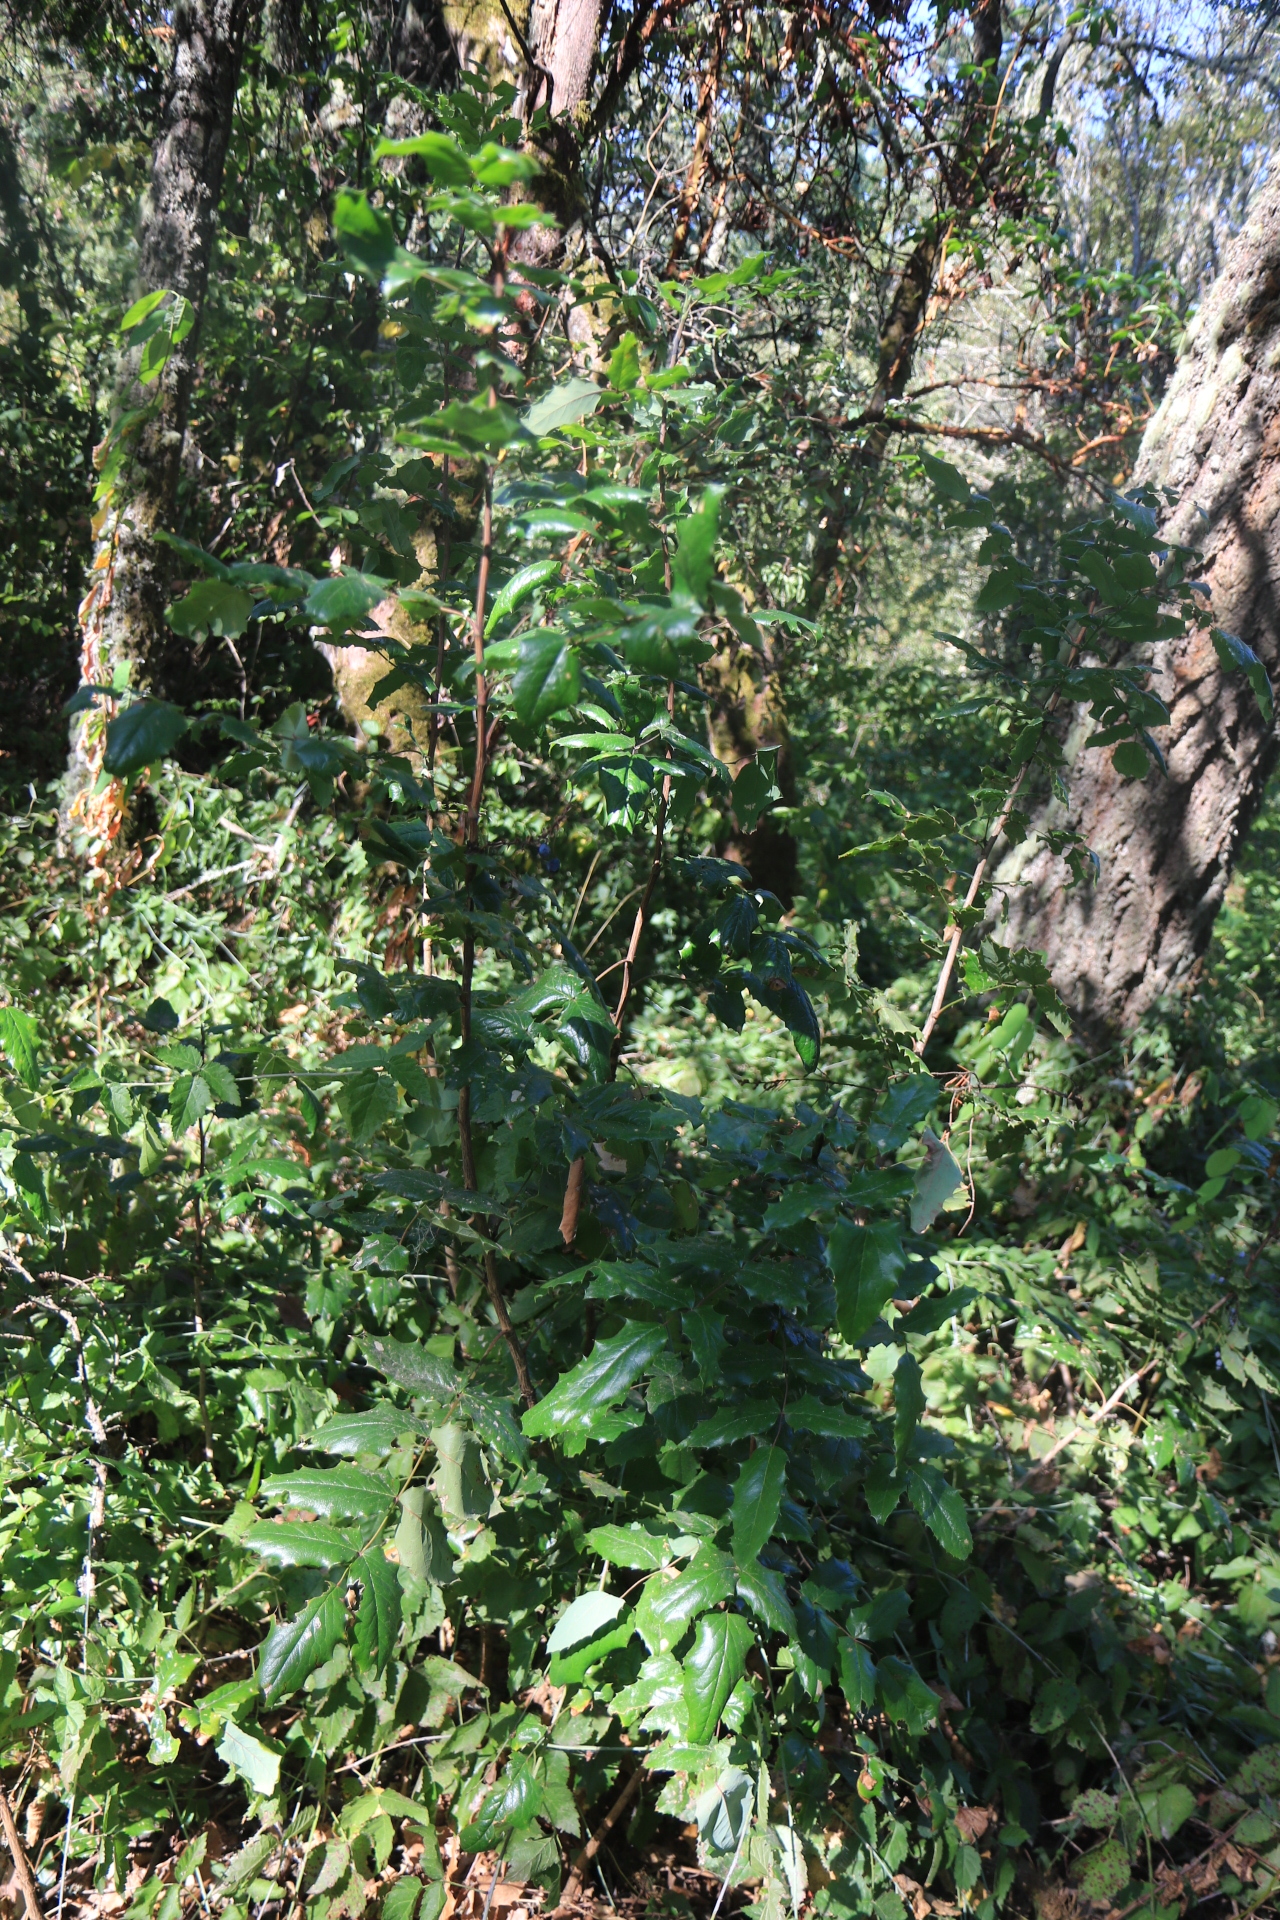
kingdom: Plantae
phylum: Tracheophyta
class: Magnoliopsida
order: Ranunculales
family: Berberidaceae
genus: Mahonia
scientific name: Mahonia aquifolium
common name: Oregon-grape
